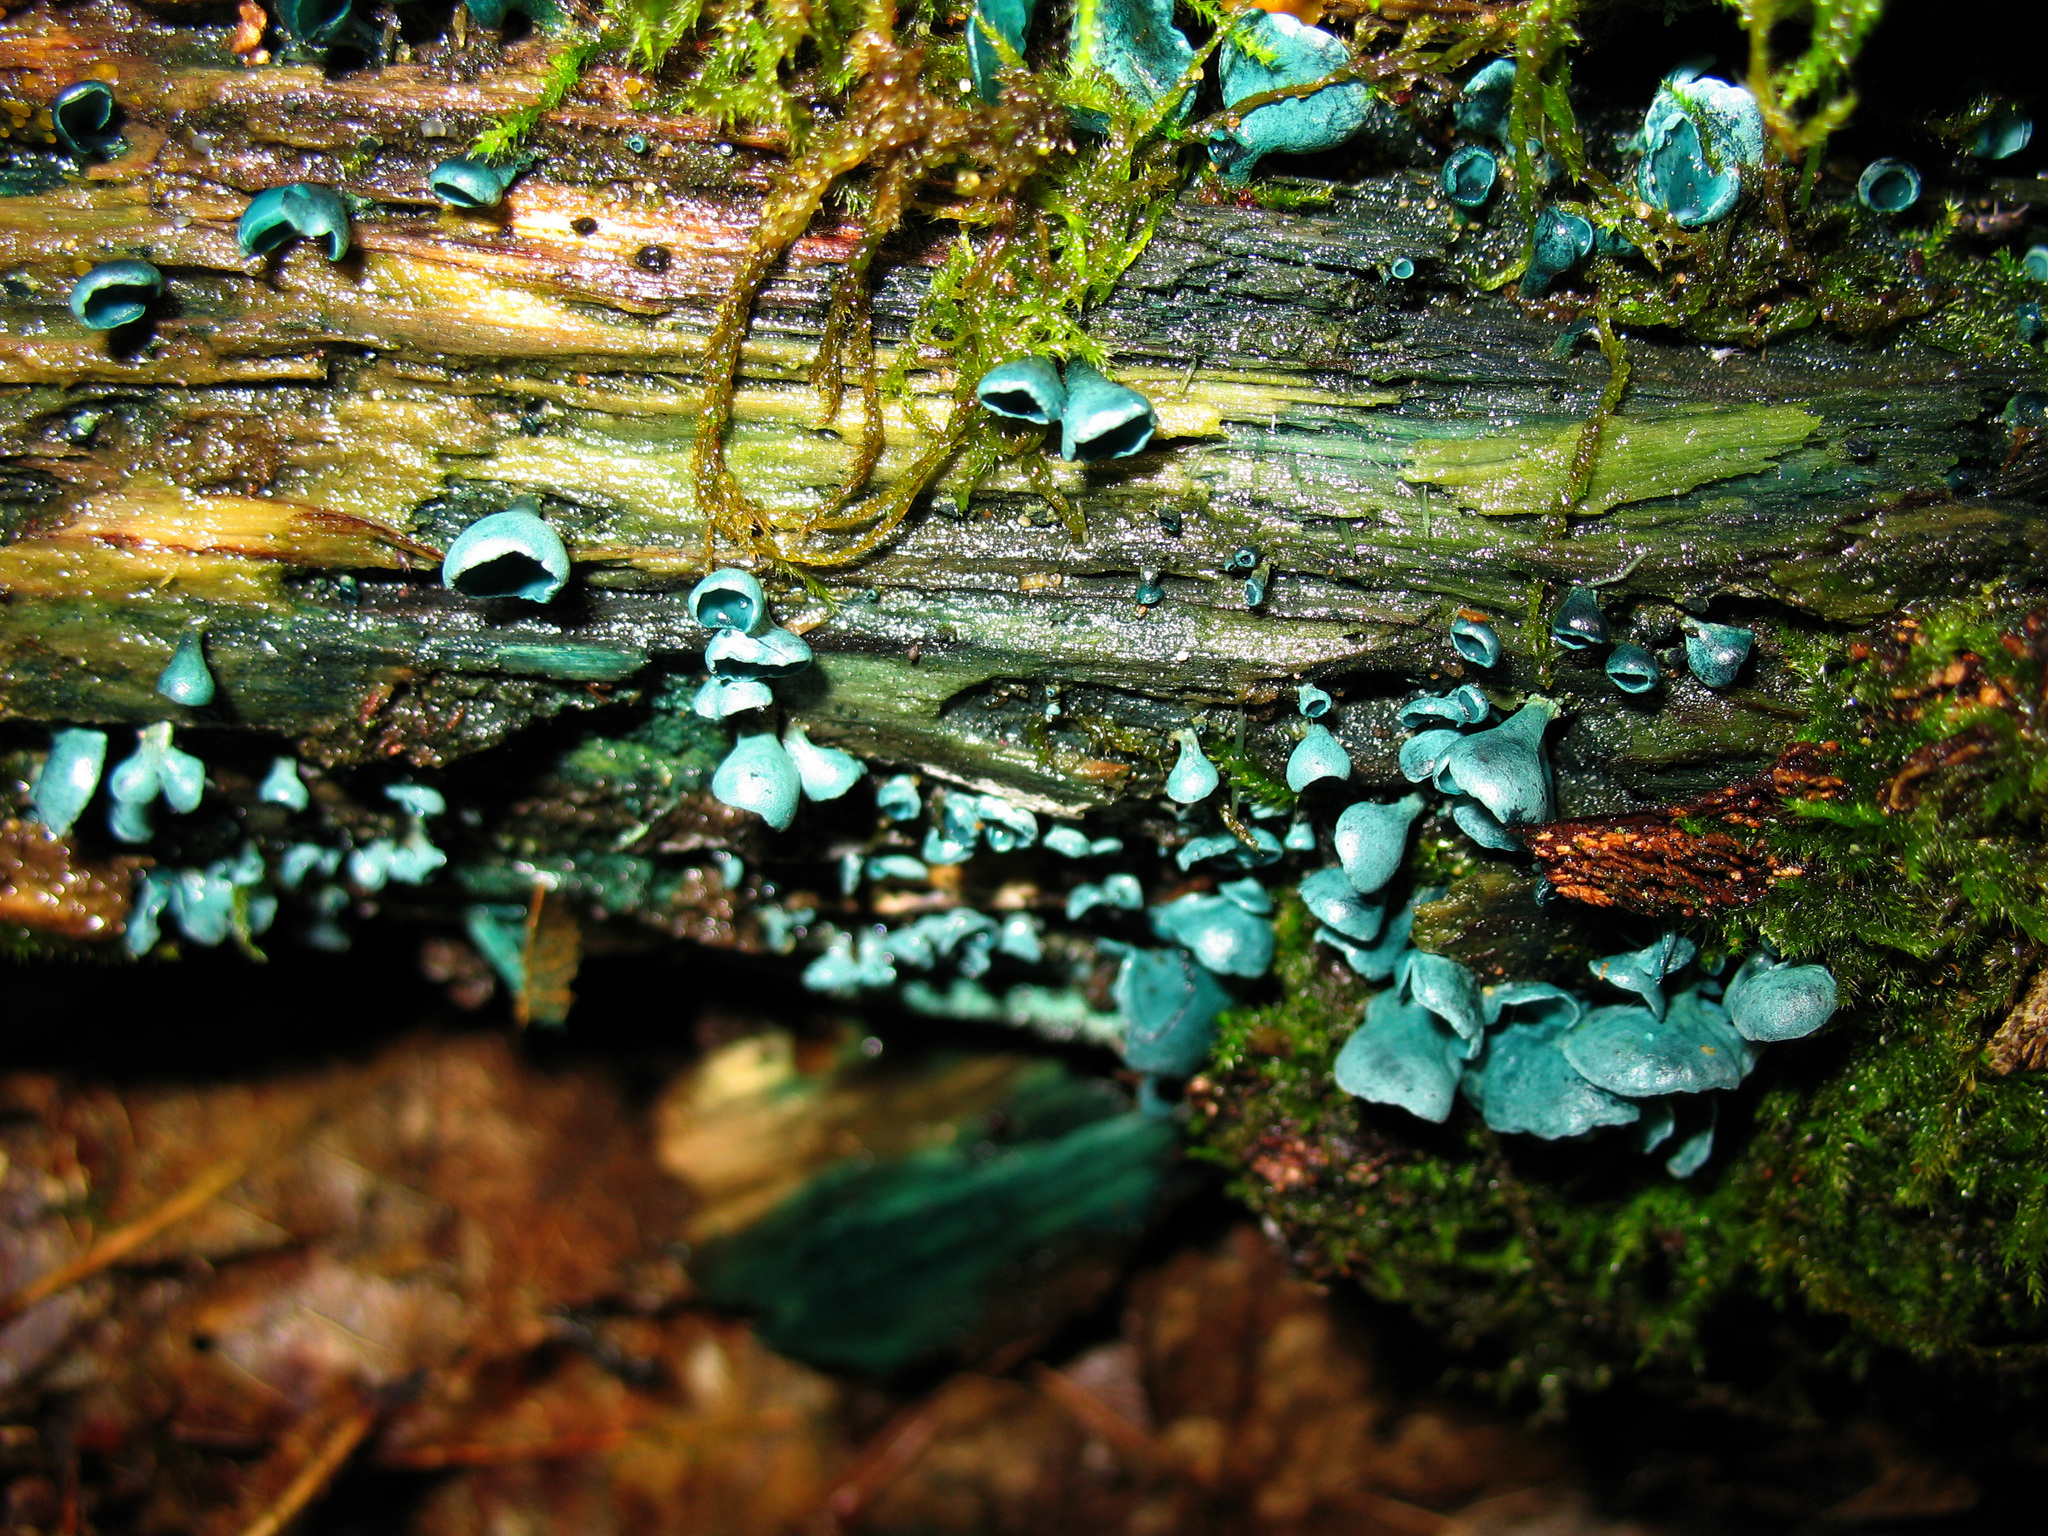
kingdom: Fungi
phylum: Ascomycota
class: Leotiomycetes
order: Helotiales
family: Chlorociboriaceae
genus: Chlorociboria
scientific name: Chlorociboria aeruginascens
